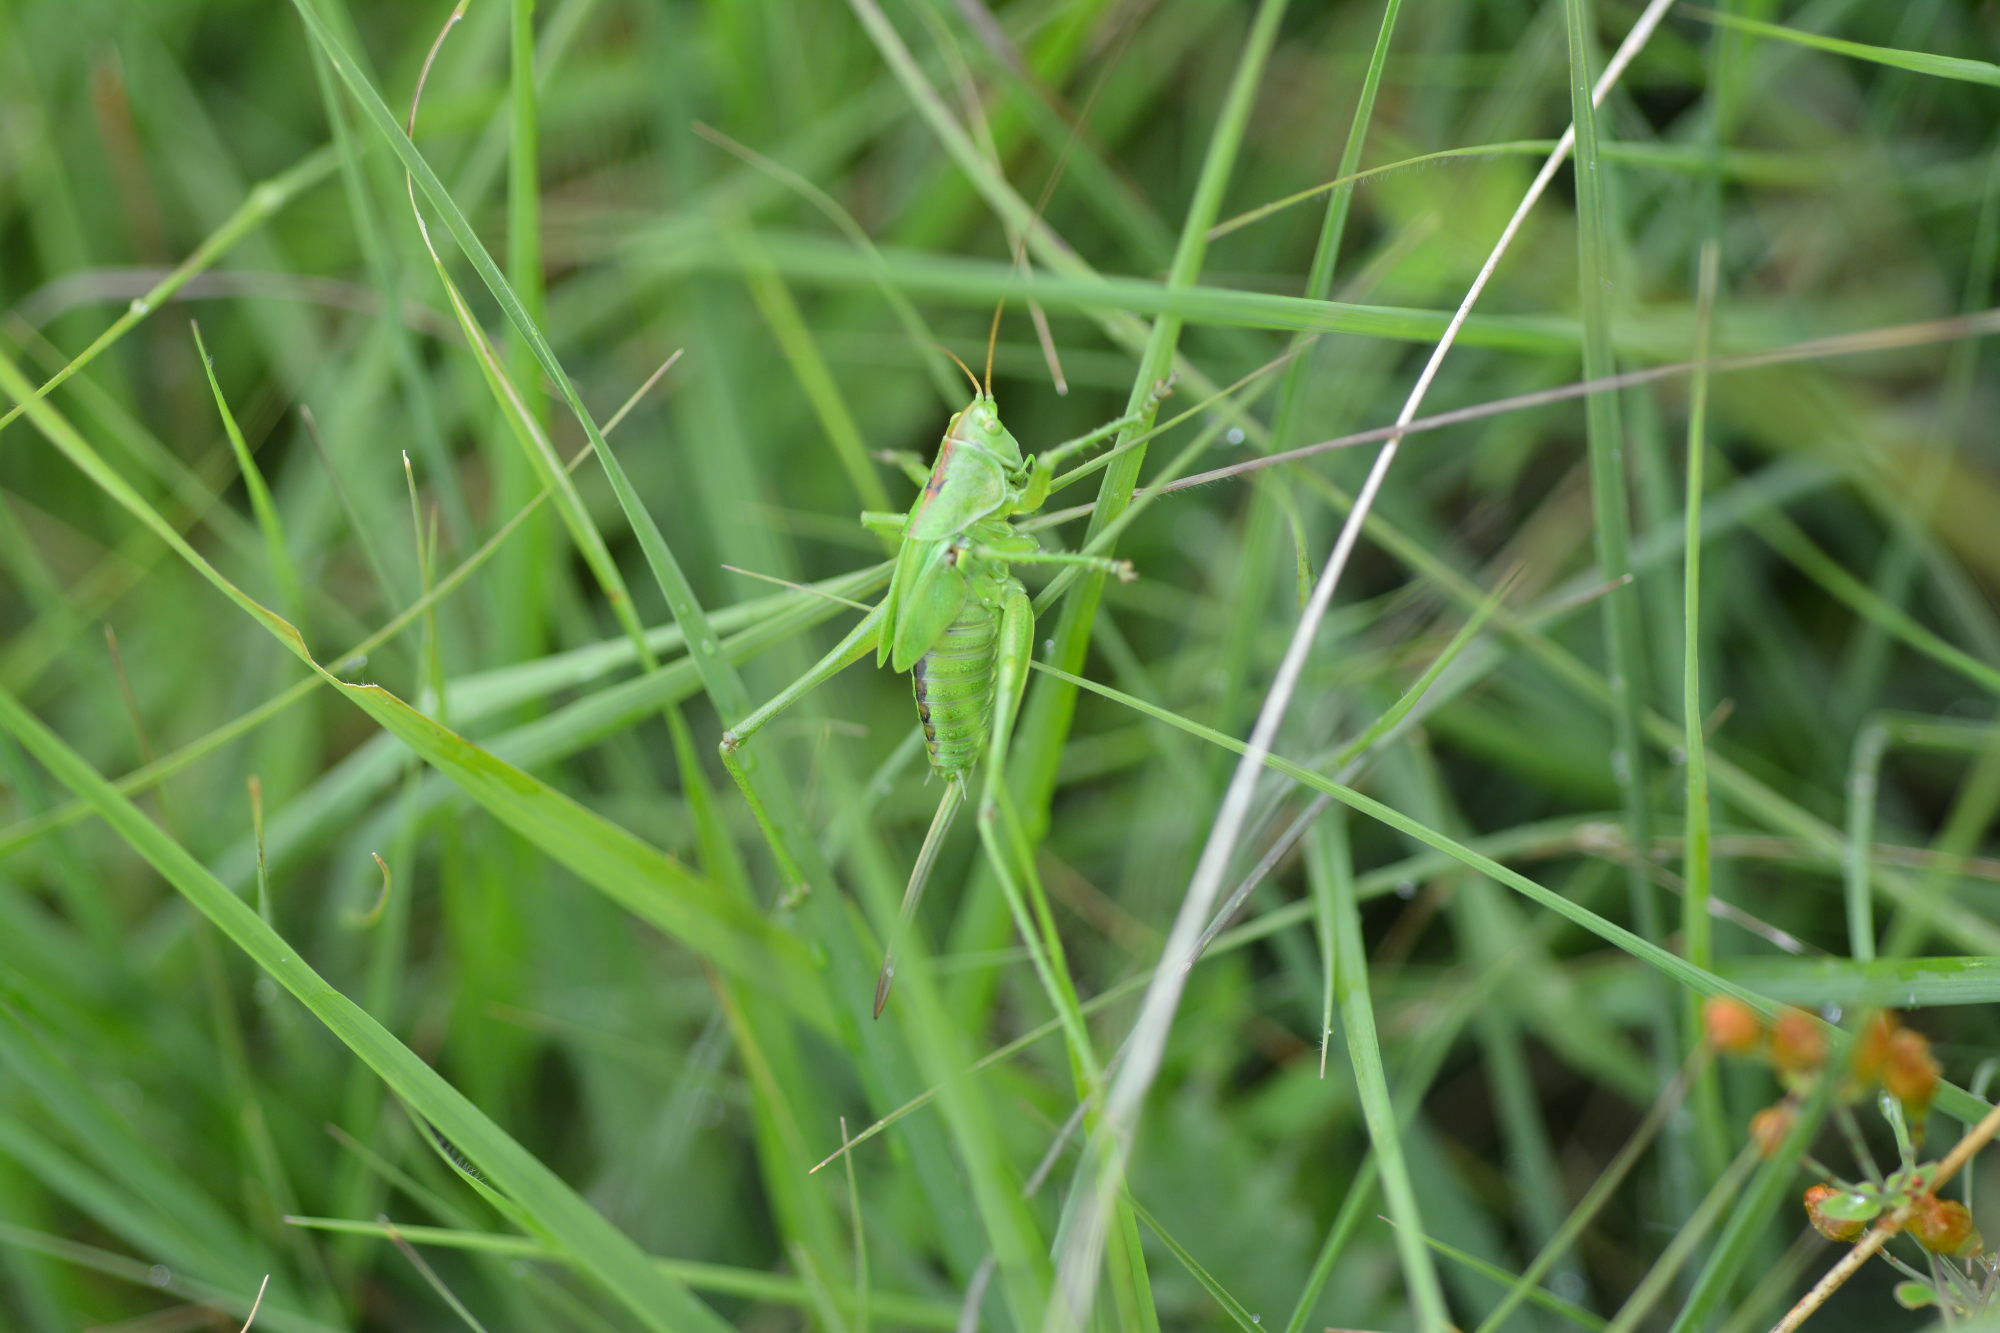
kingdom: Animalia
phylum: Arthropoda
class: Insecta
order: Orthoptera
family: Tettigoniidae
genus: Tettigonia
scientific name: Tettigonia viridissima
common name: Great green bush-cricket
